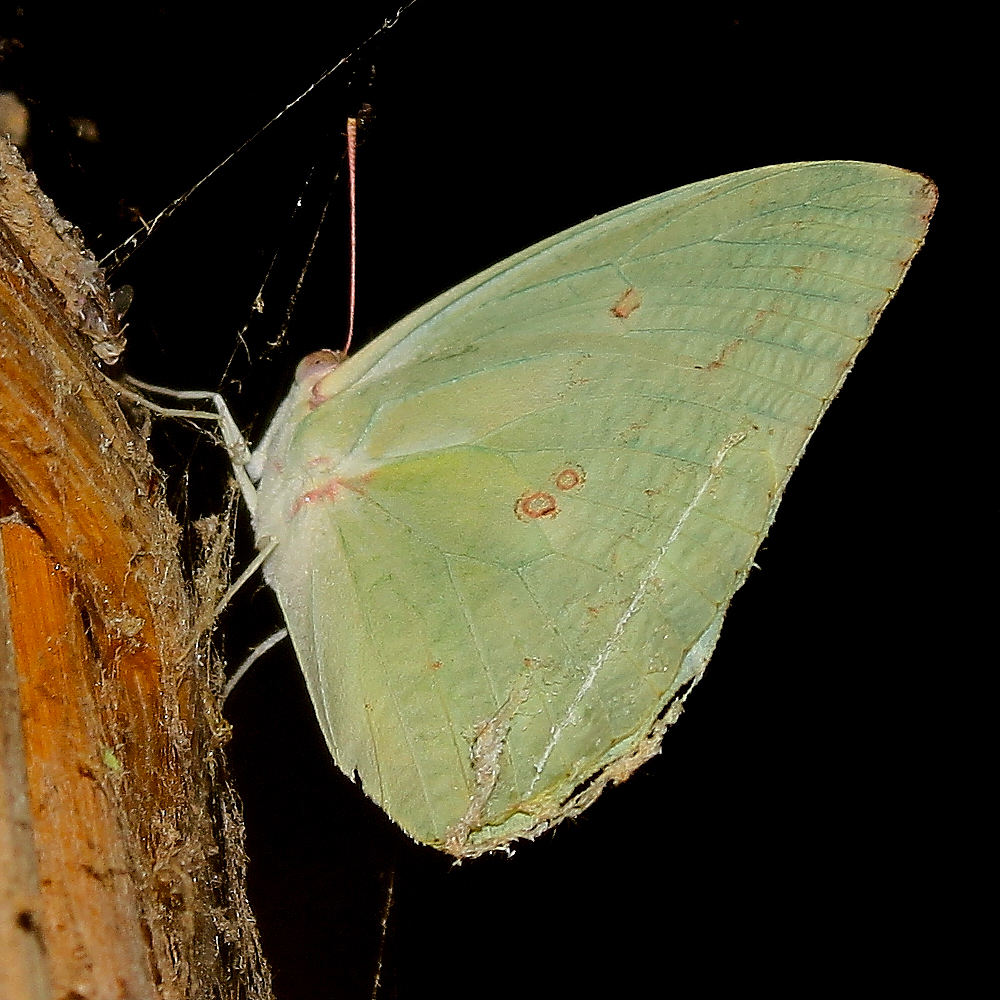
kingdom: Animalia
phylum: Arthropoda
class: Insecta
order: Lepidoptera
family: Pieridae
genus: Catopsilia
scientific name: Catopsilia pomona
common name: Common emigrant
